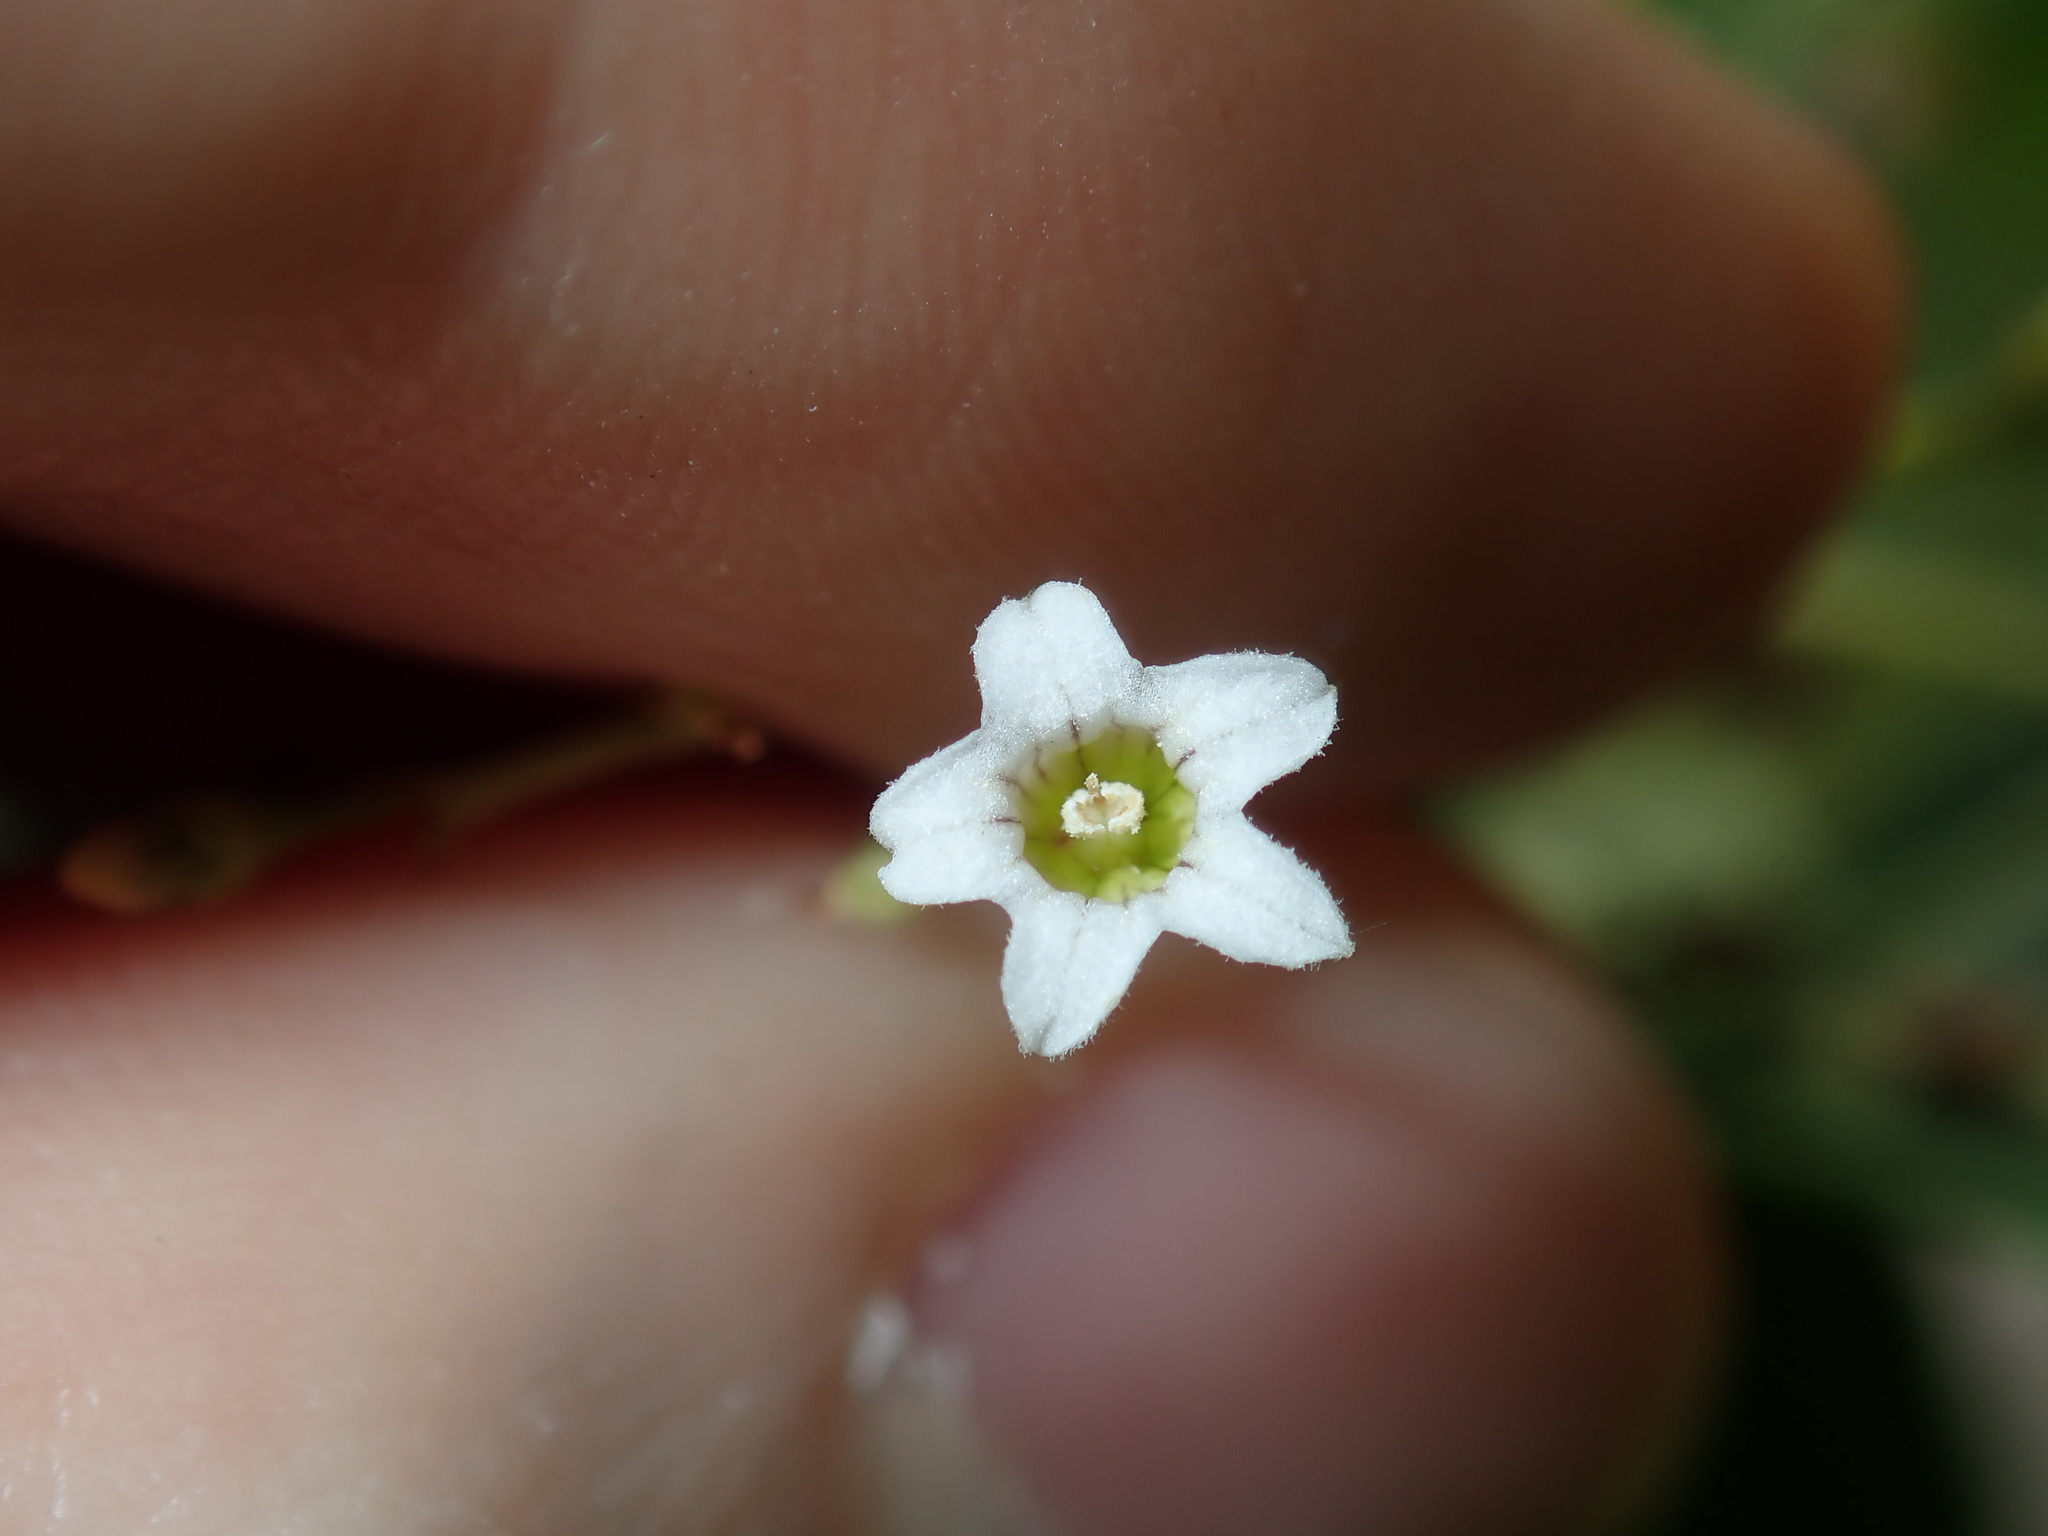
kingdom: Plantae
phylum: Tracheophyta
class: Magnoliopsida
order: Solanales
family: Solanaceae
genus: Duboisia
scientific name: Duboisia myoporoides
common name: Corkwoodtree
